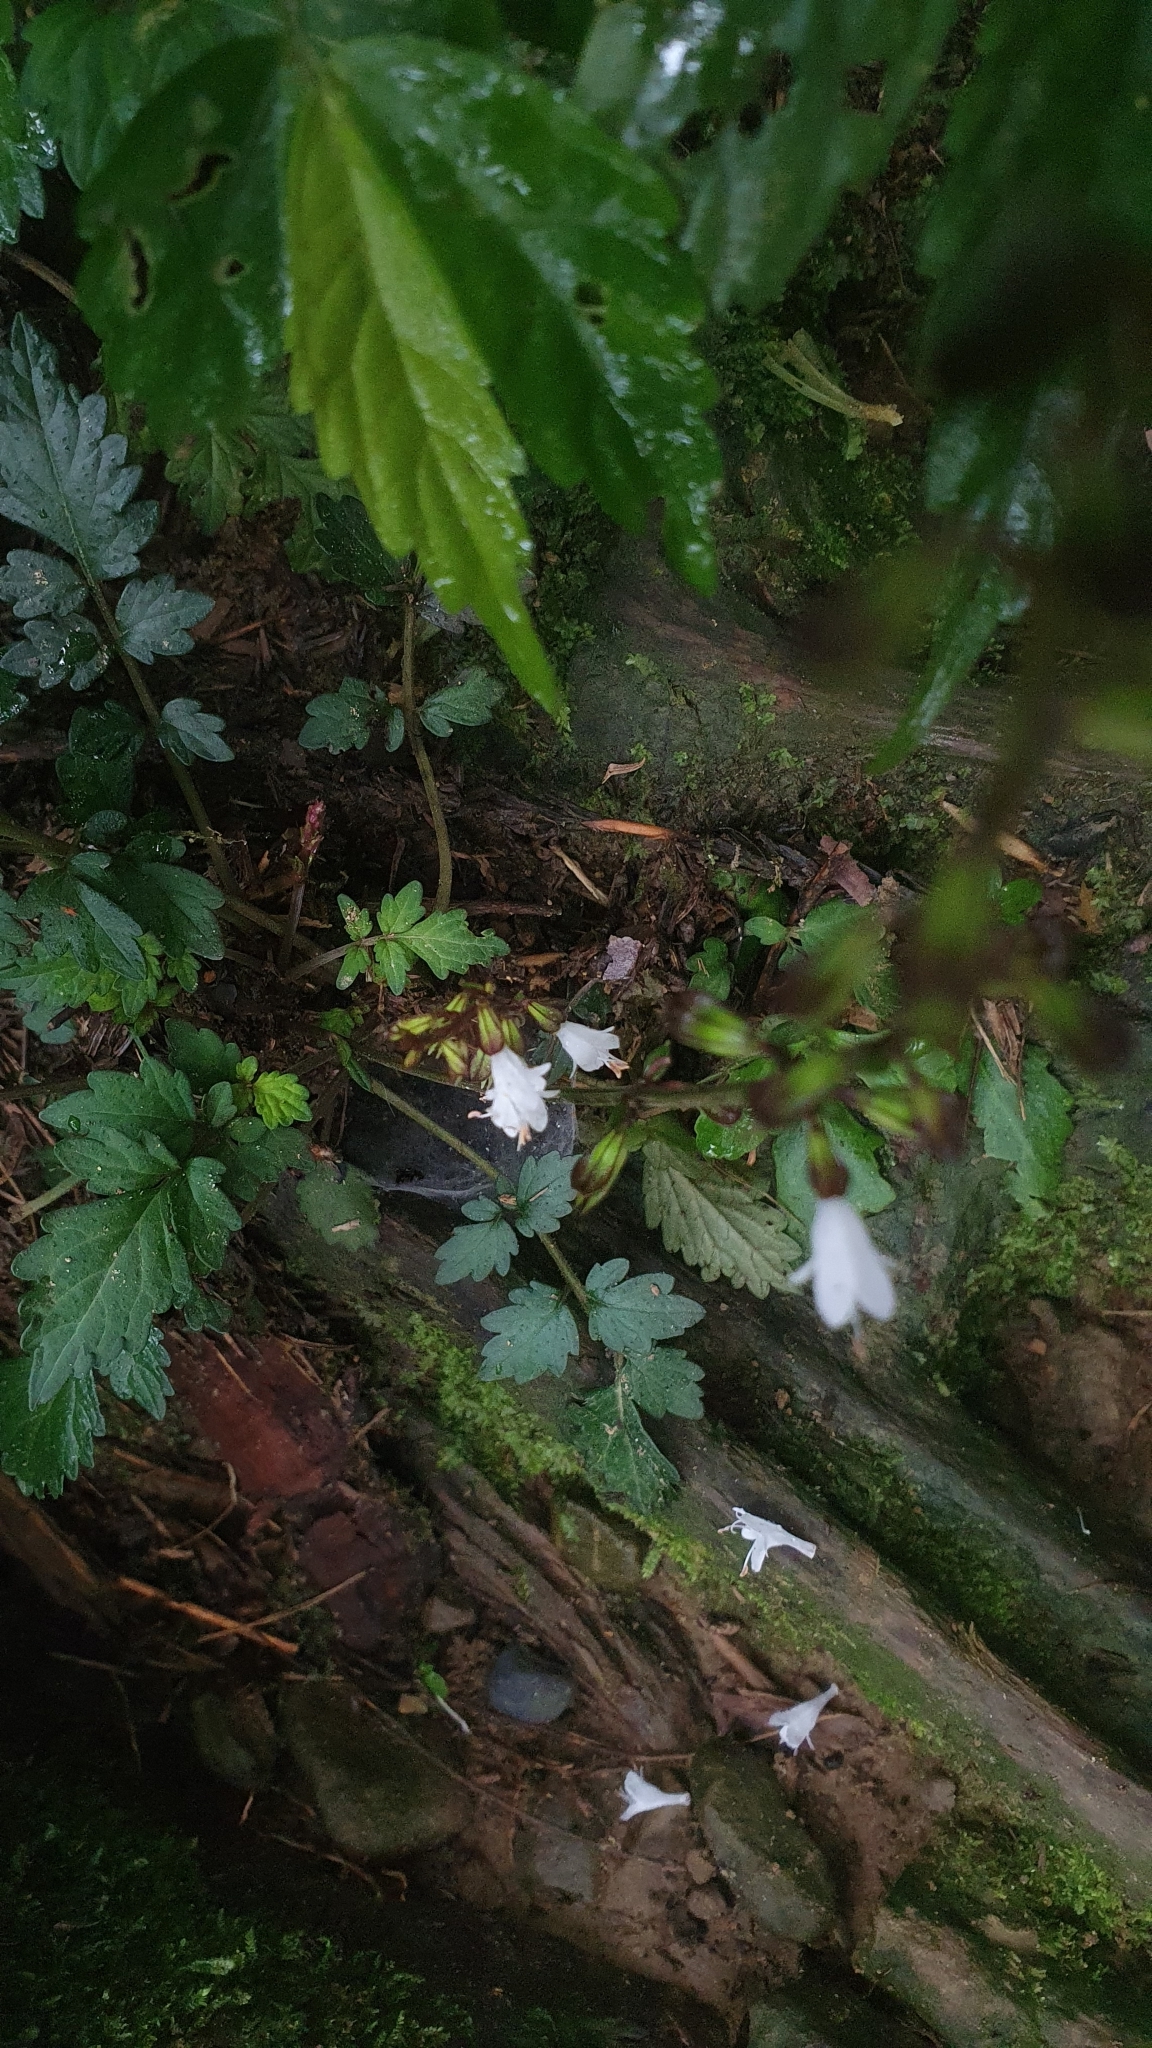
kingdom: Plantae
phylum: Tracheophyta
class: Magnoliopsida
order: Lamiales
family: Lamiaceae
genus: Salvia
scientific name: Salvia hayatae
